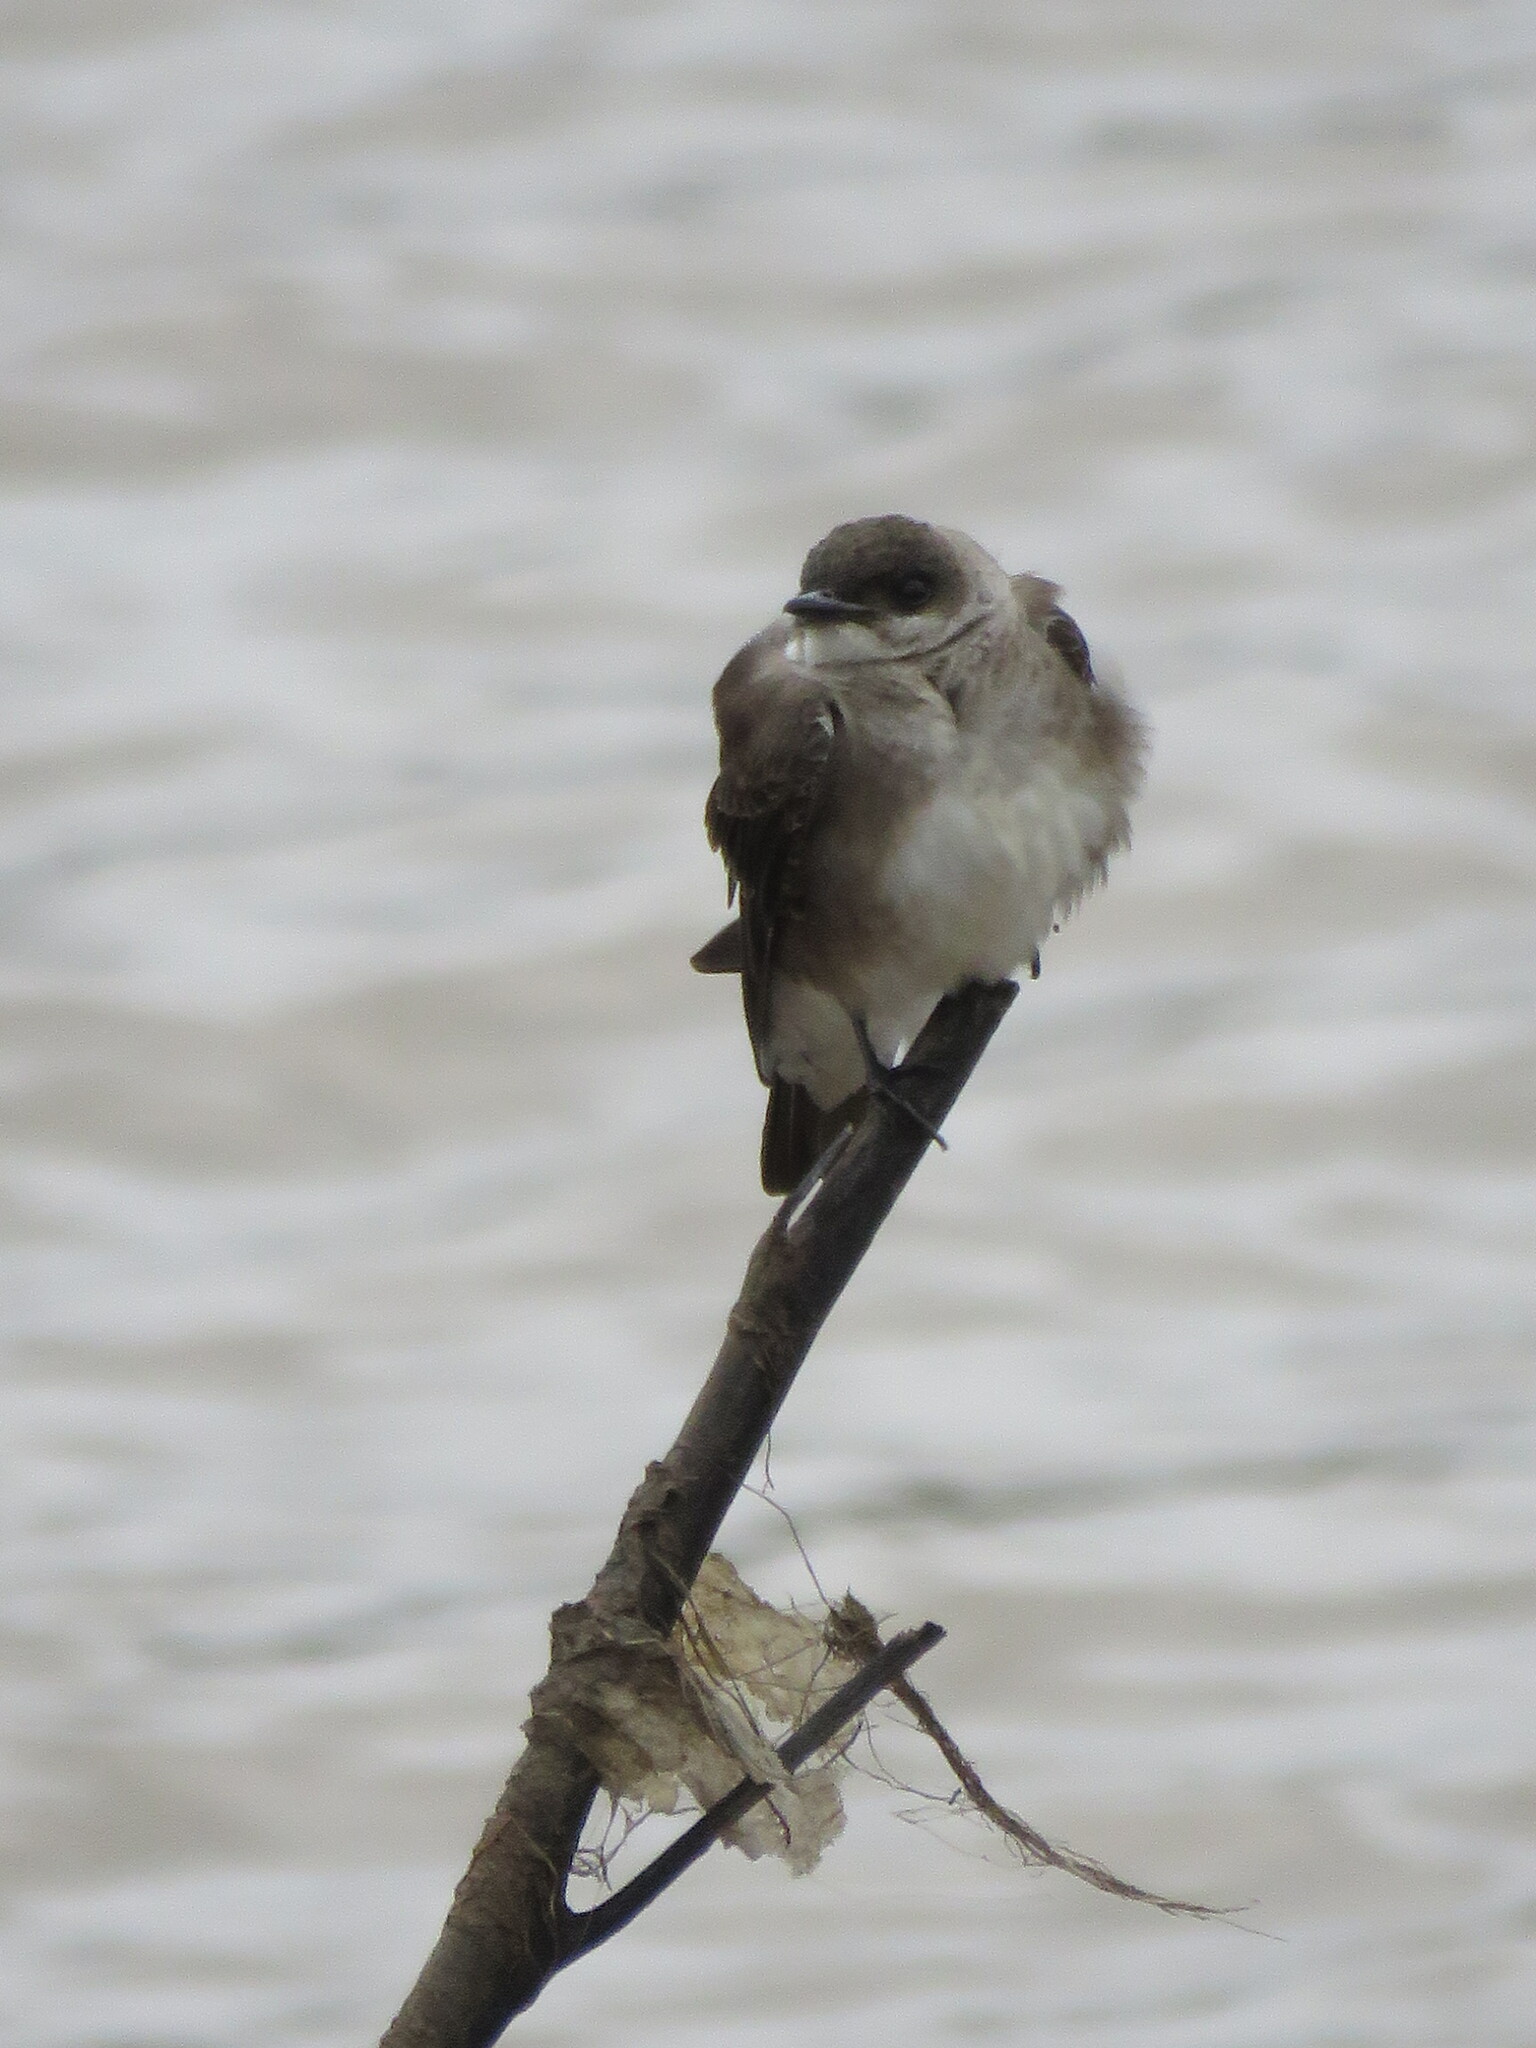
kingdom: Animalia
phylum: Chordata
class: Aves
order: Passeriformes
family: Hirundinidae
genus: Progne
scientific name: Progne tapera
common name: Brown-chested martin
